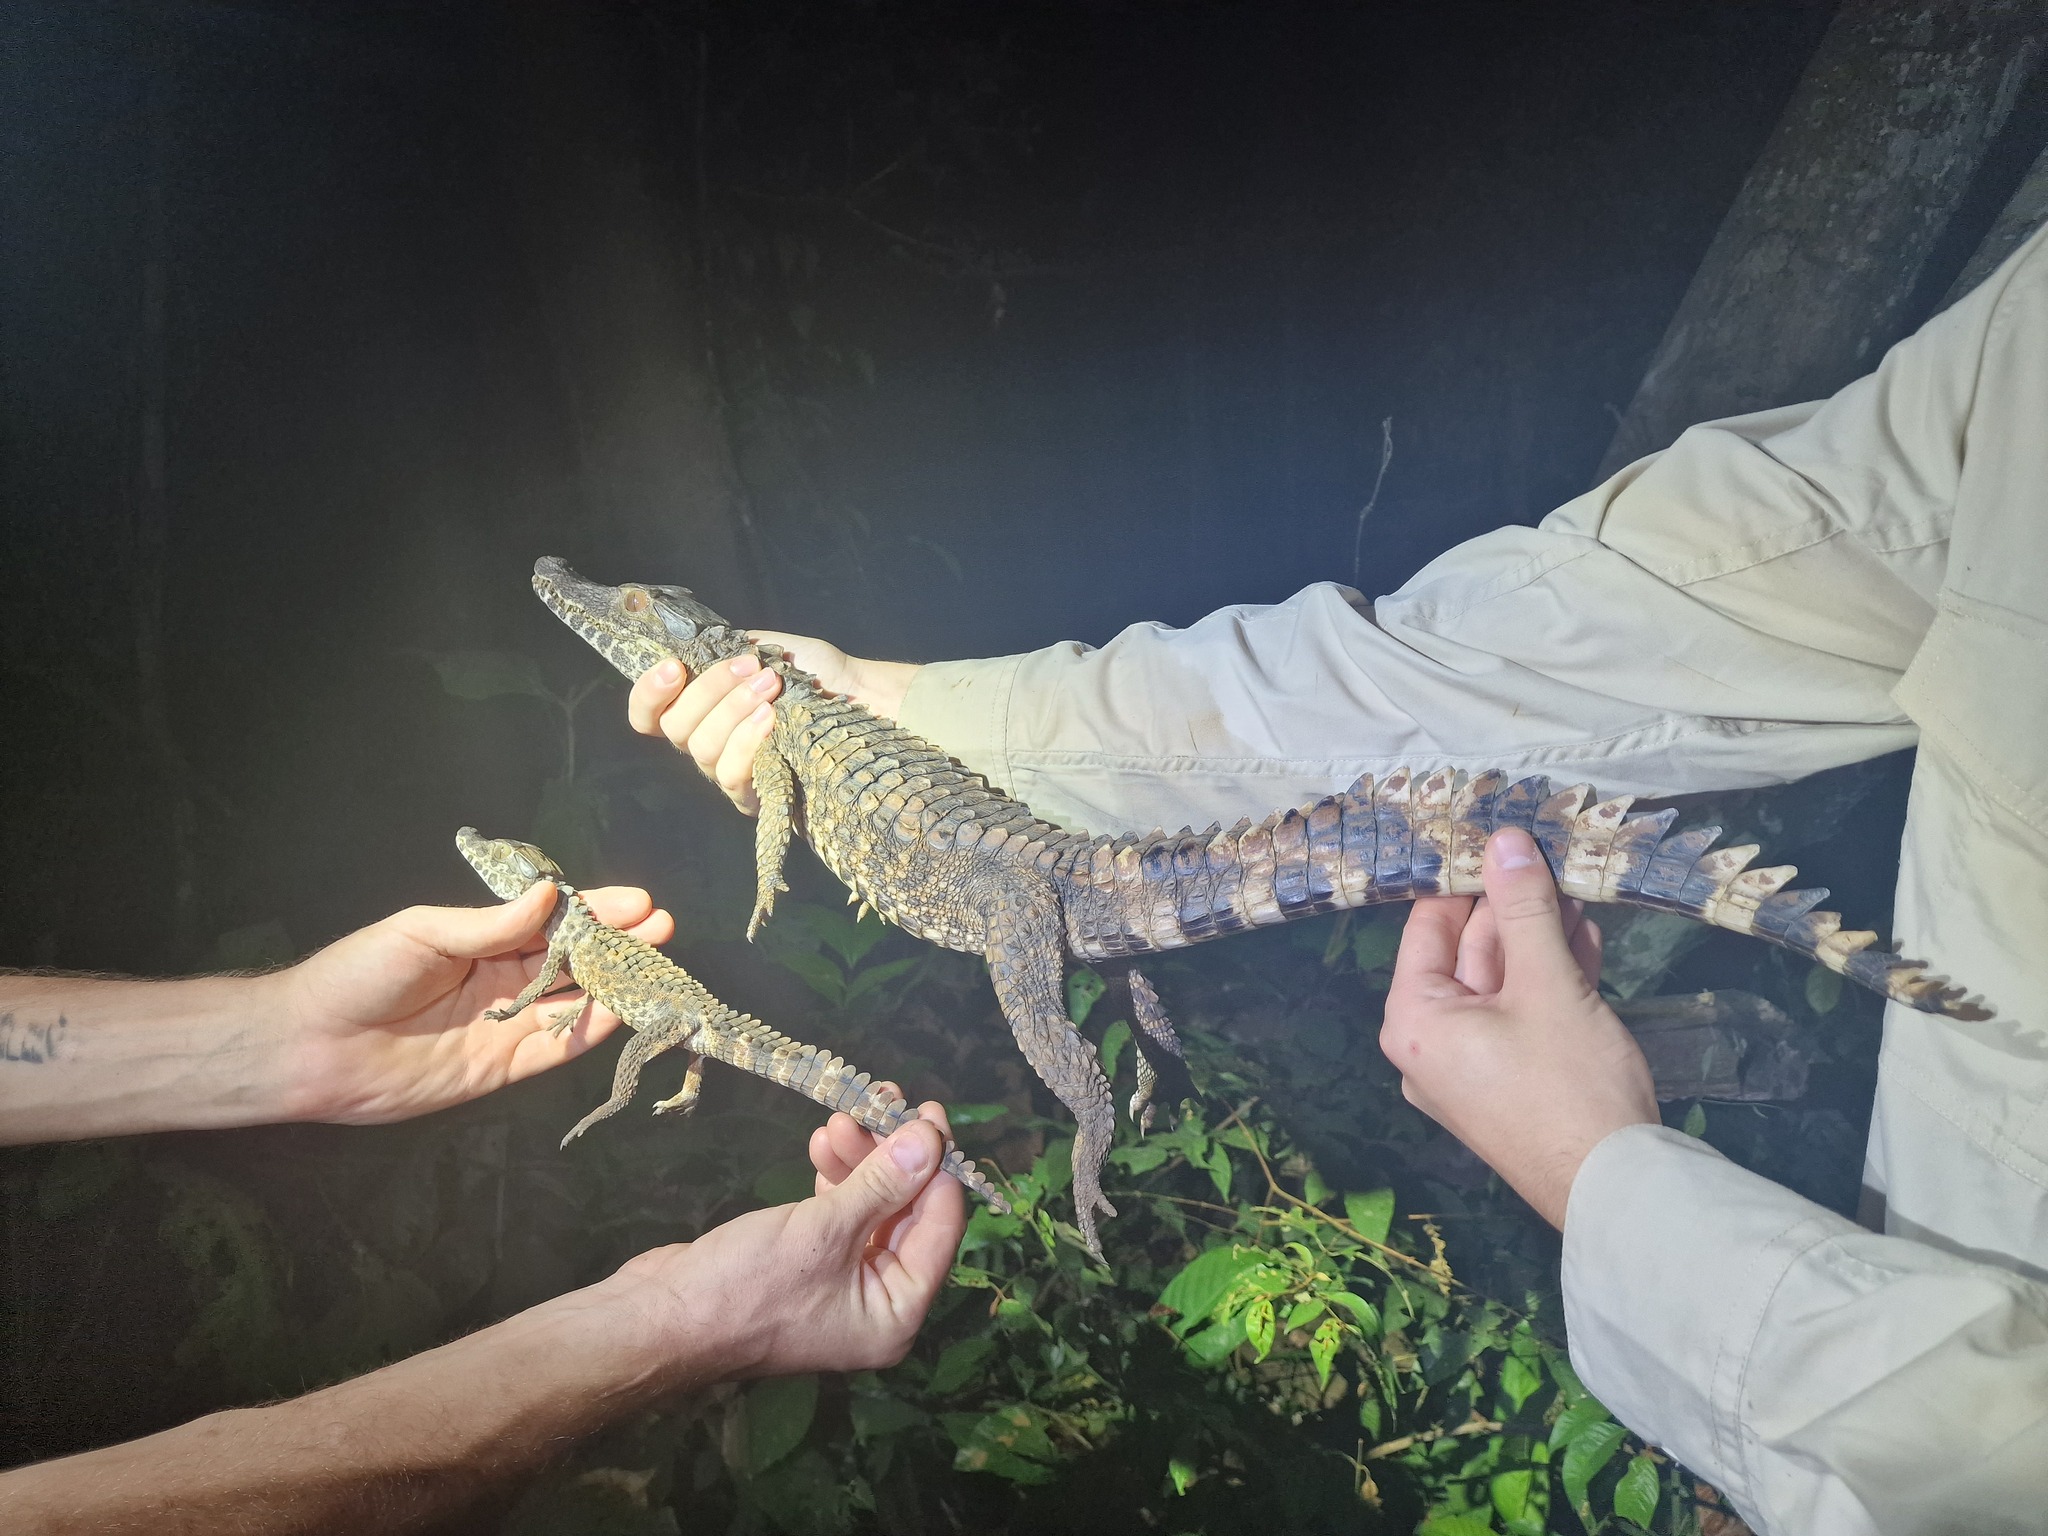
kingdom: Animalia
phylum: Chordata
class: Crocodylia
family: Alligatoridae
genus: Paleosuchus
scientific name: Paleosuchus trigonatus
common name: Schneider's smooth-fronted caiman
